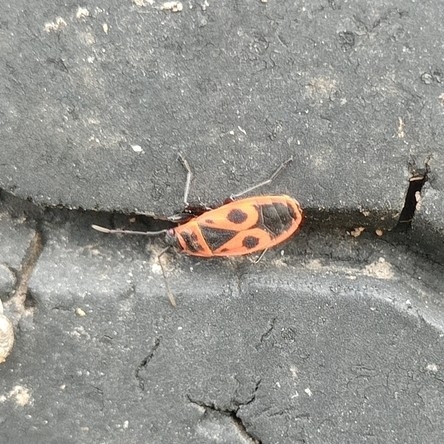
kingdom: Animalia
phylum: Arthropoda
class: Insecta
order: Hemiptera
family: Pyrrhocoridae
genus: Pyrrhocoris
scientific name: Pyrrhocoris apterus
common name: Firebug
